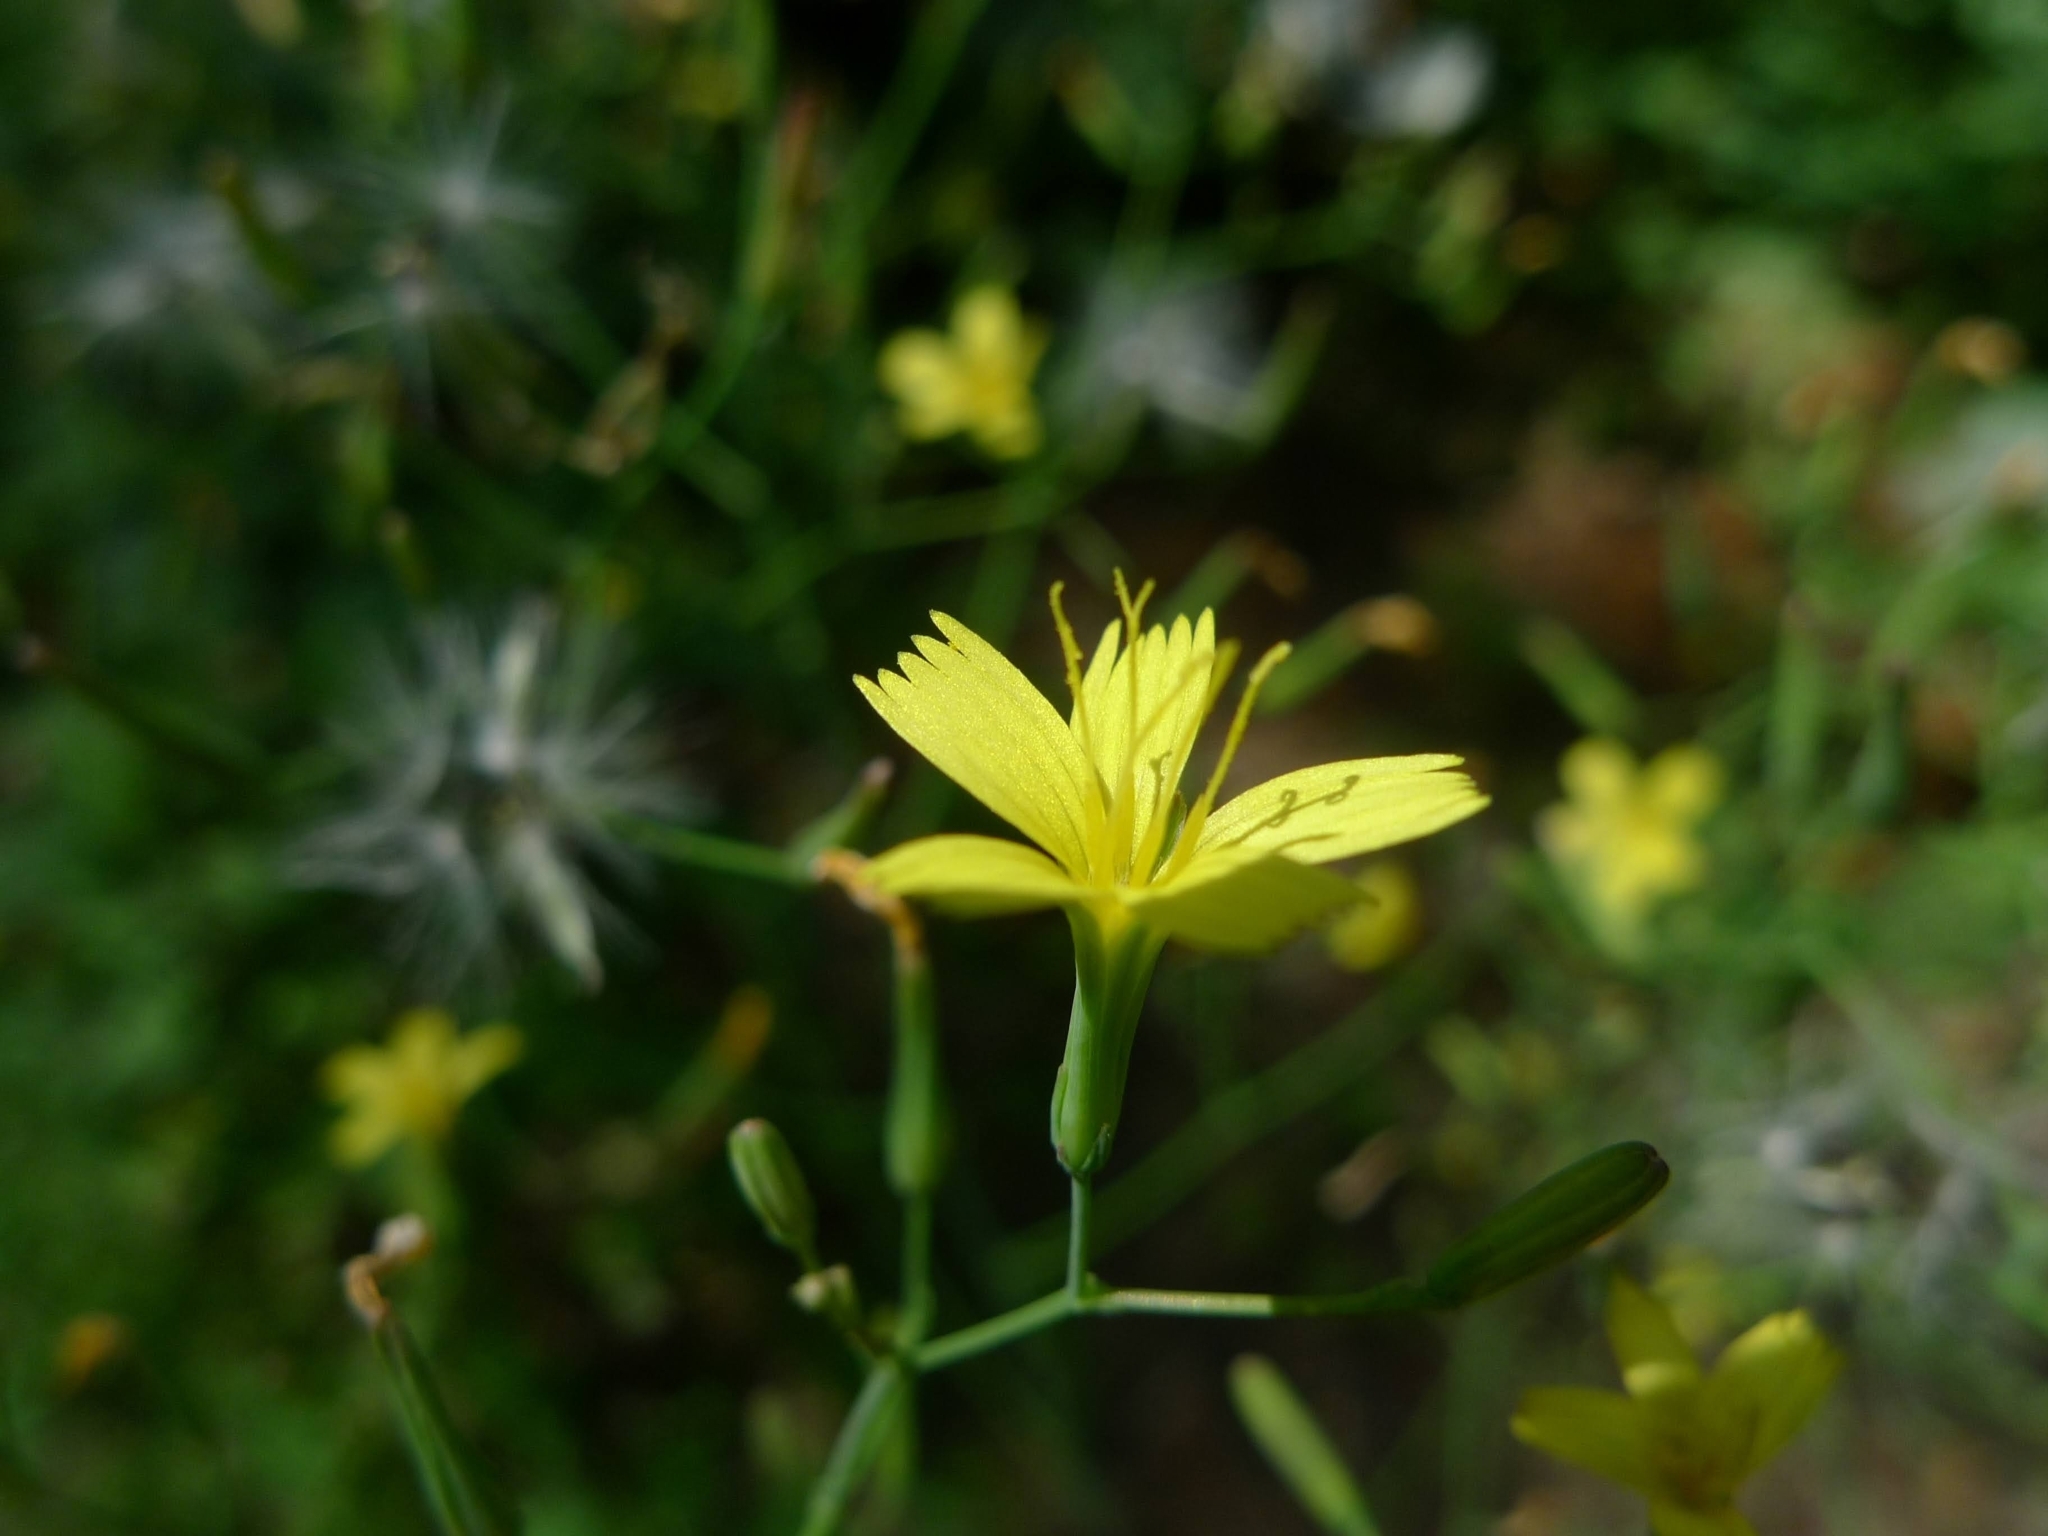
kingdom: Plantae
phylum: Tracheophyta
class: Magnoliopsida
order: Asterales
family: Asteraceae
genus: Mycelis
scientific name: Mycelis muralis
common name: Wall lettuce
